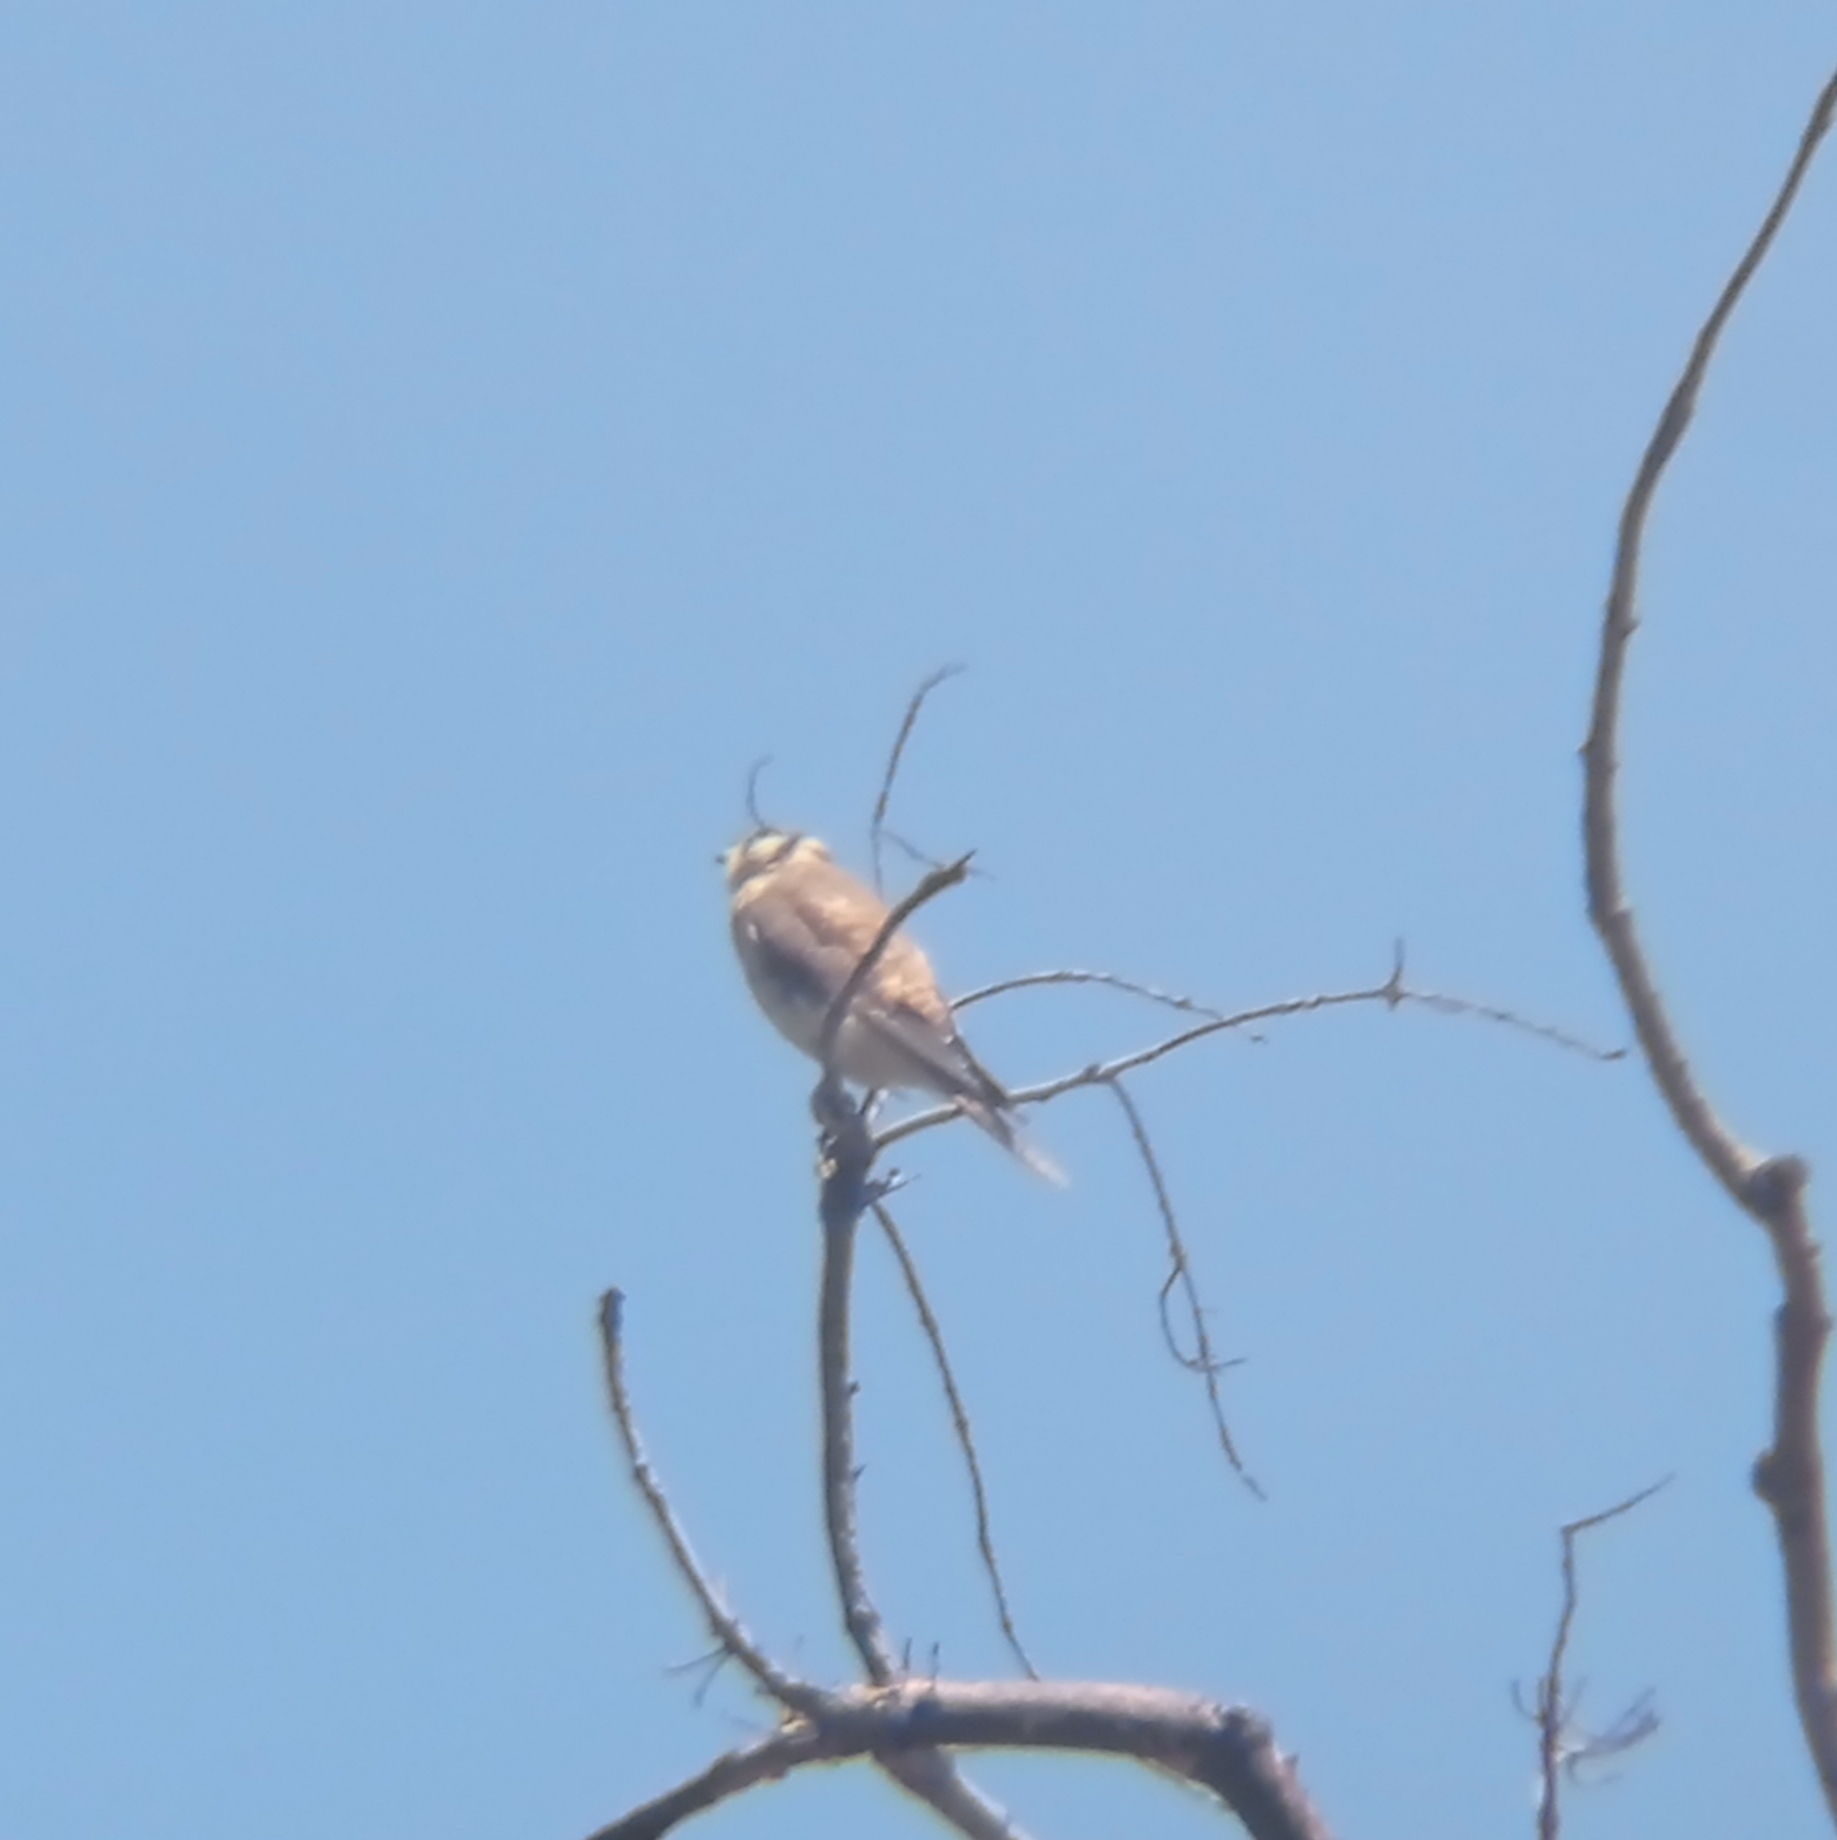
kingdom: Animalia
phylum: Chordata
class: Aves
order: Falconiformes
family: Falconidae
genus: Falco
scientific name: Falco sparverius
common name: American kestrel
